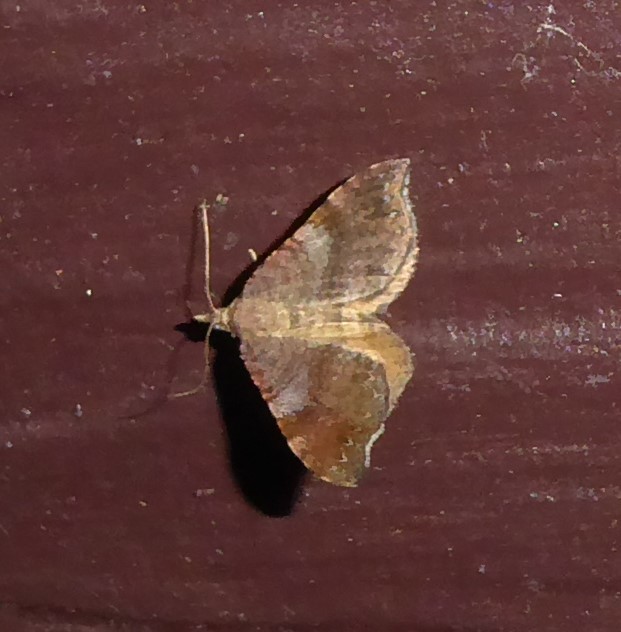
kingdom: Animalia
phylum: Arthropoda
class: Insecta
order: Lepidoptera
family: Geometridae
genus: Homodotis
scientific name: Homodotis megaspilata
